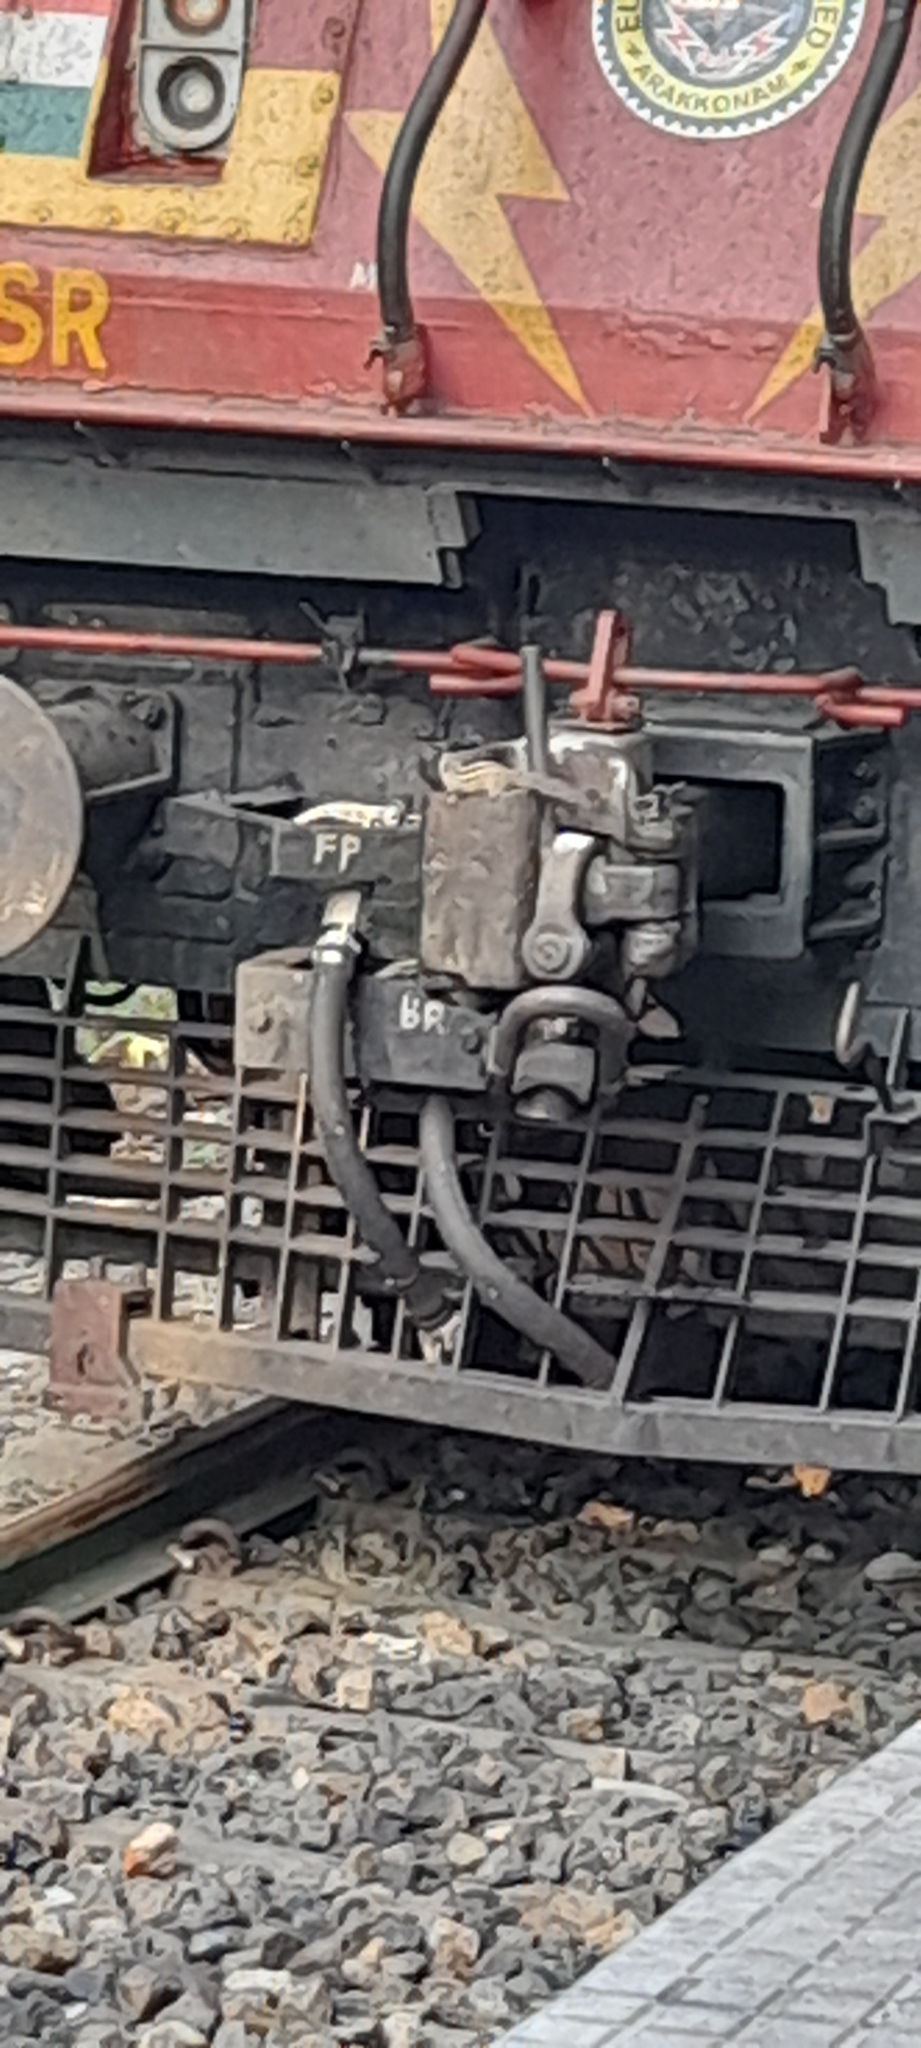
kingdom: Animalia
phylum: Chordata
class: Mammalia
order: Rodentia
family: Sciuridae
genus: Funambulus
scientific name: Funambulus palmarum
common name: Indian palm squirrel
